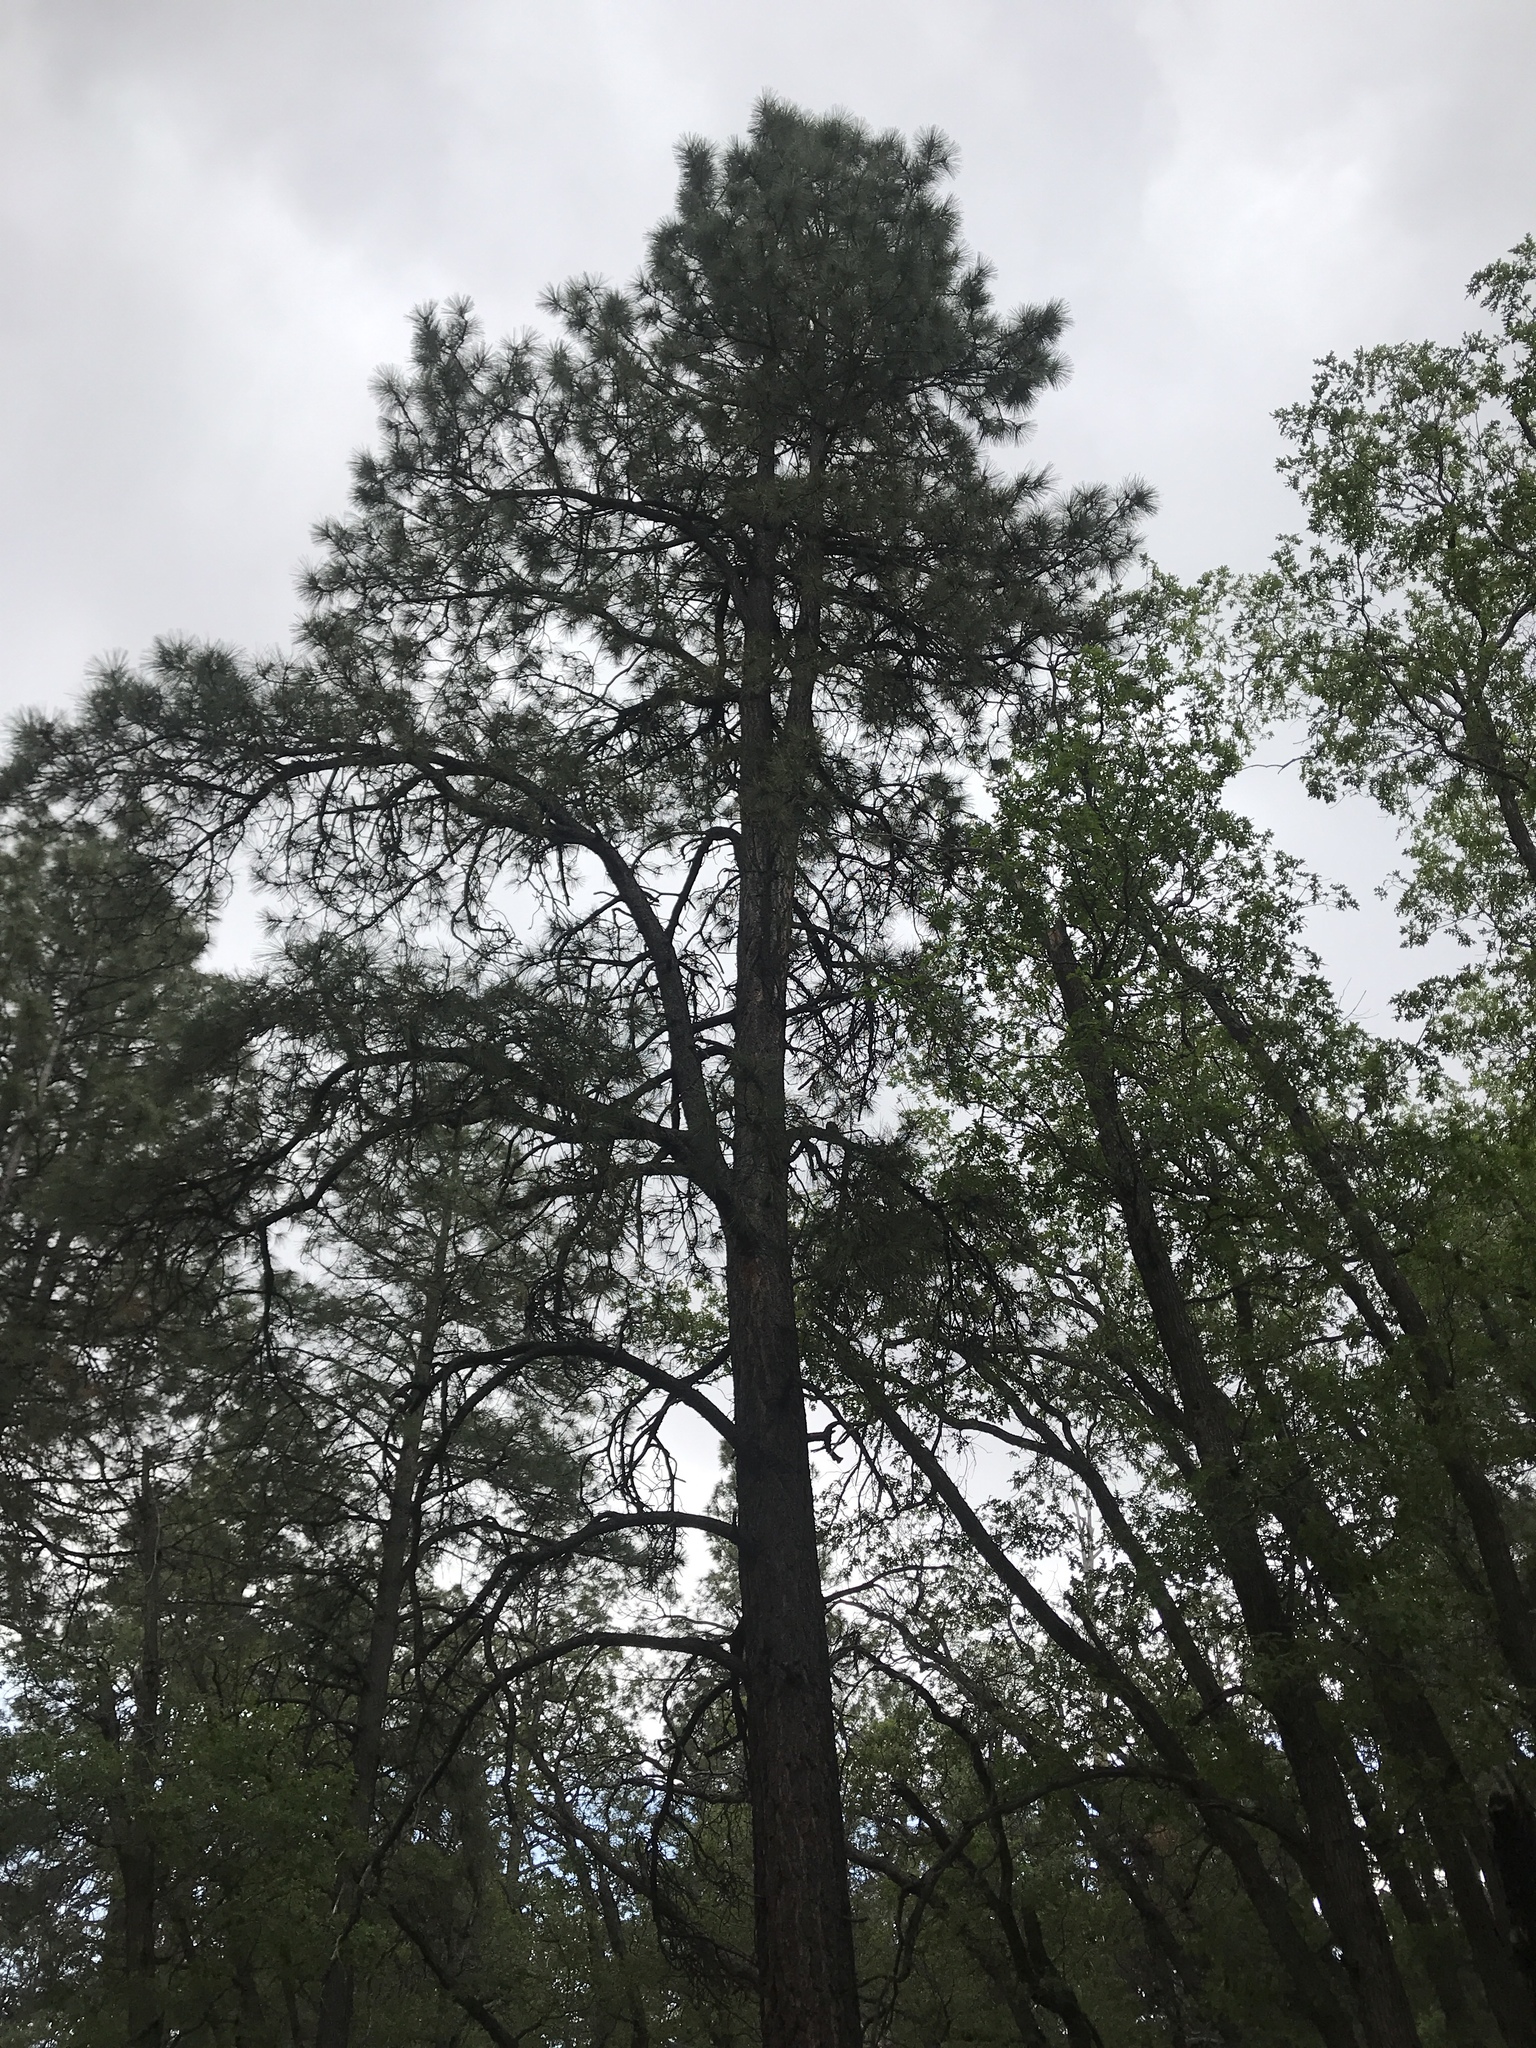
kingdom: Plantae
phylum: Tracheophyta
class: Pinopsida
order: Pinales
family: Pinaceae
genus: Pinus
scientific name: Pinus ponderosa
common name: Western yellow-pine
